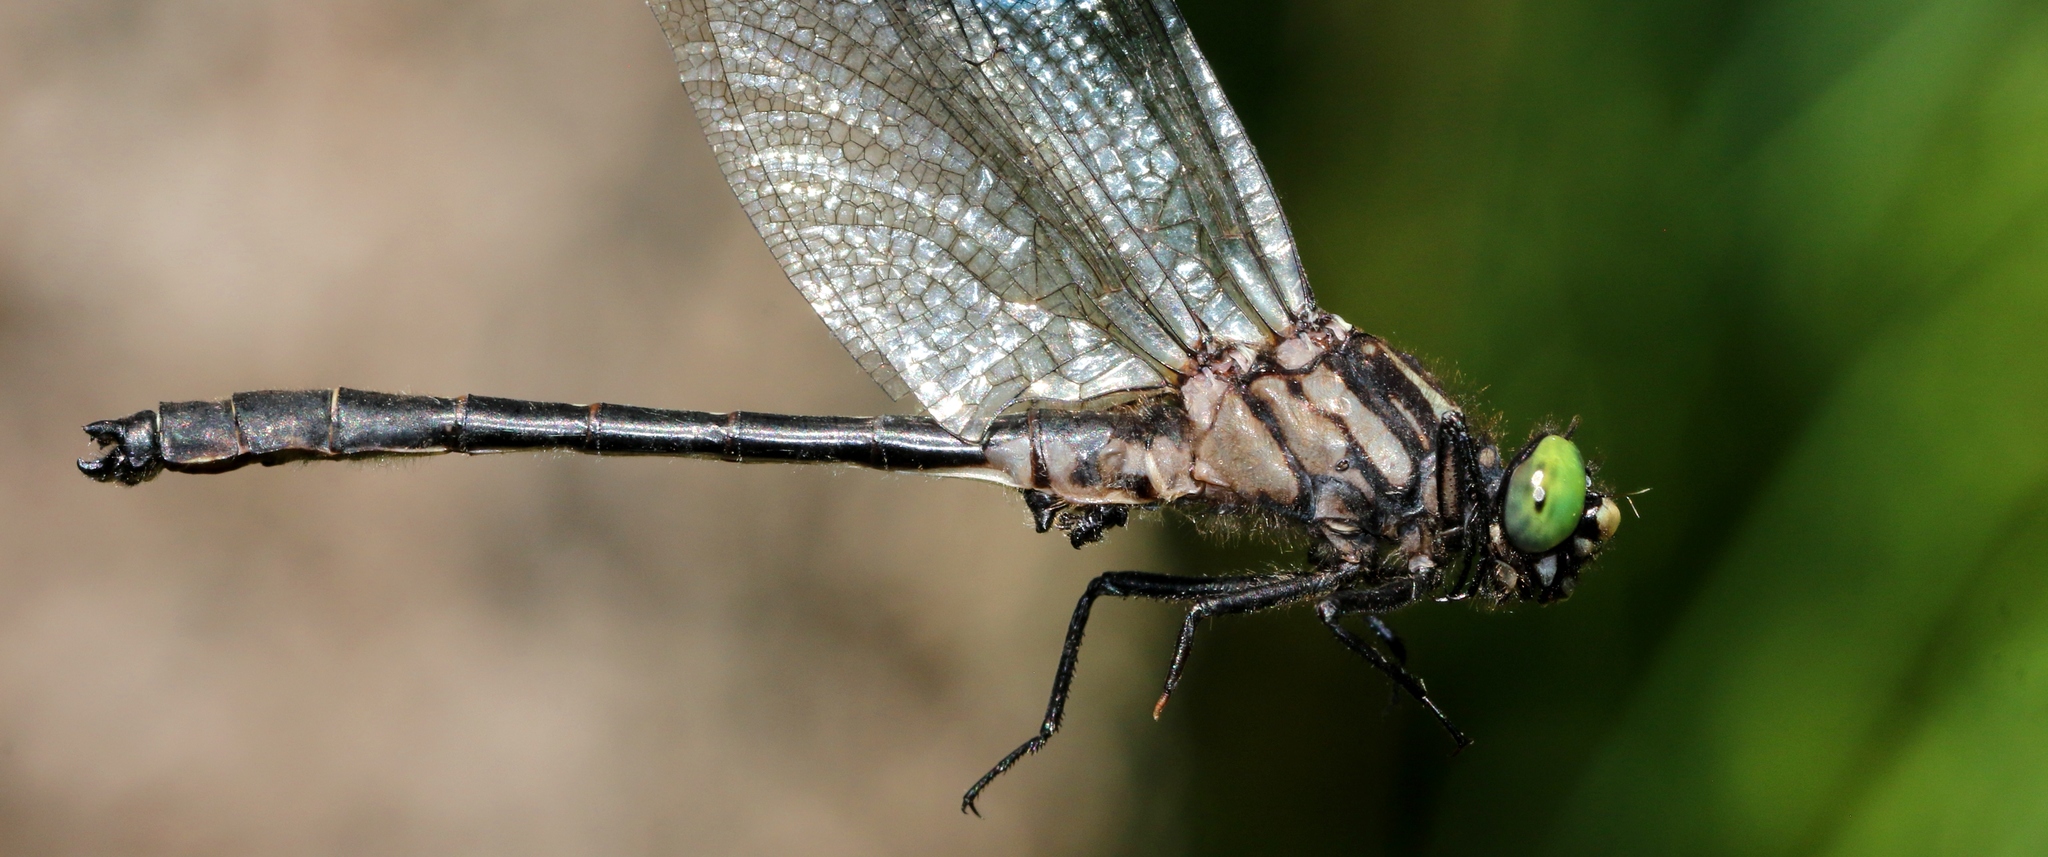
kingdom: Animalia
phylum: Arthropoda
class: Insecta
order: Odonata
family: Gomphidae
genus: Hylogomphus
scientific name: Hylogomphus adelphus
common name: Mustached clubtail
